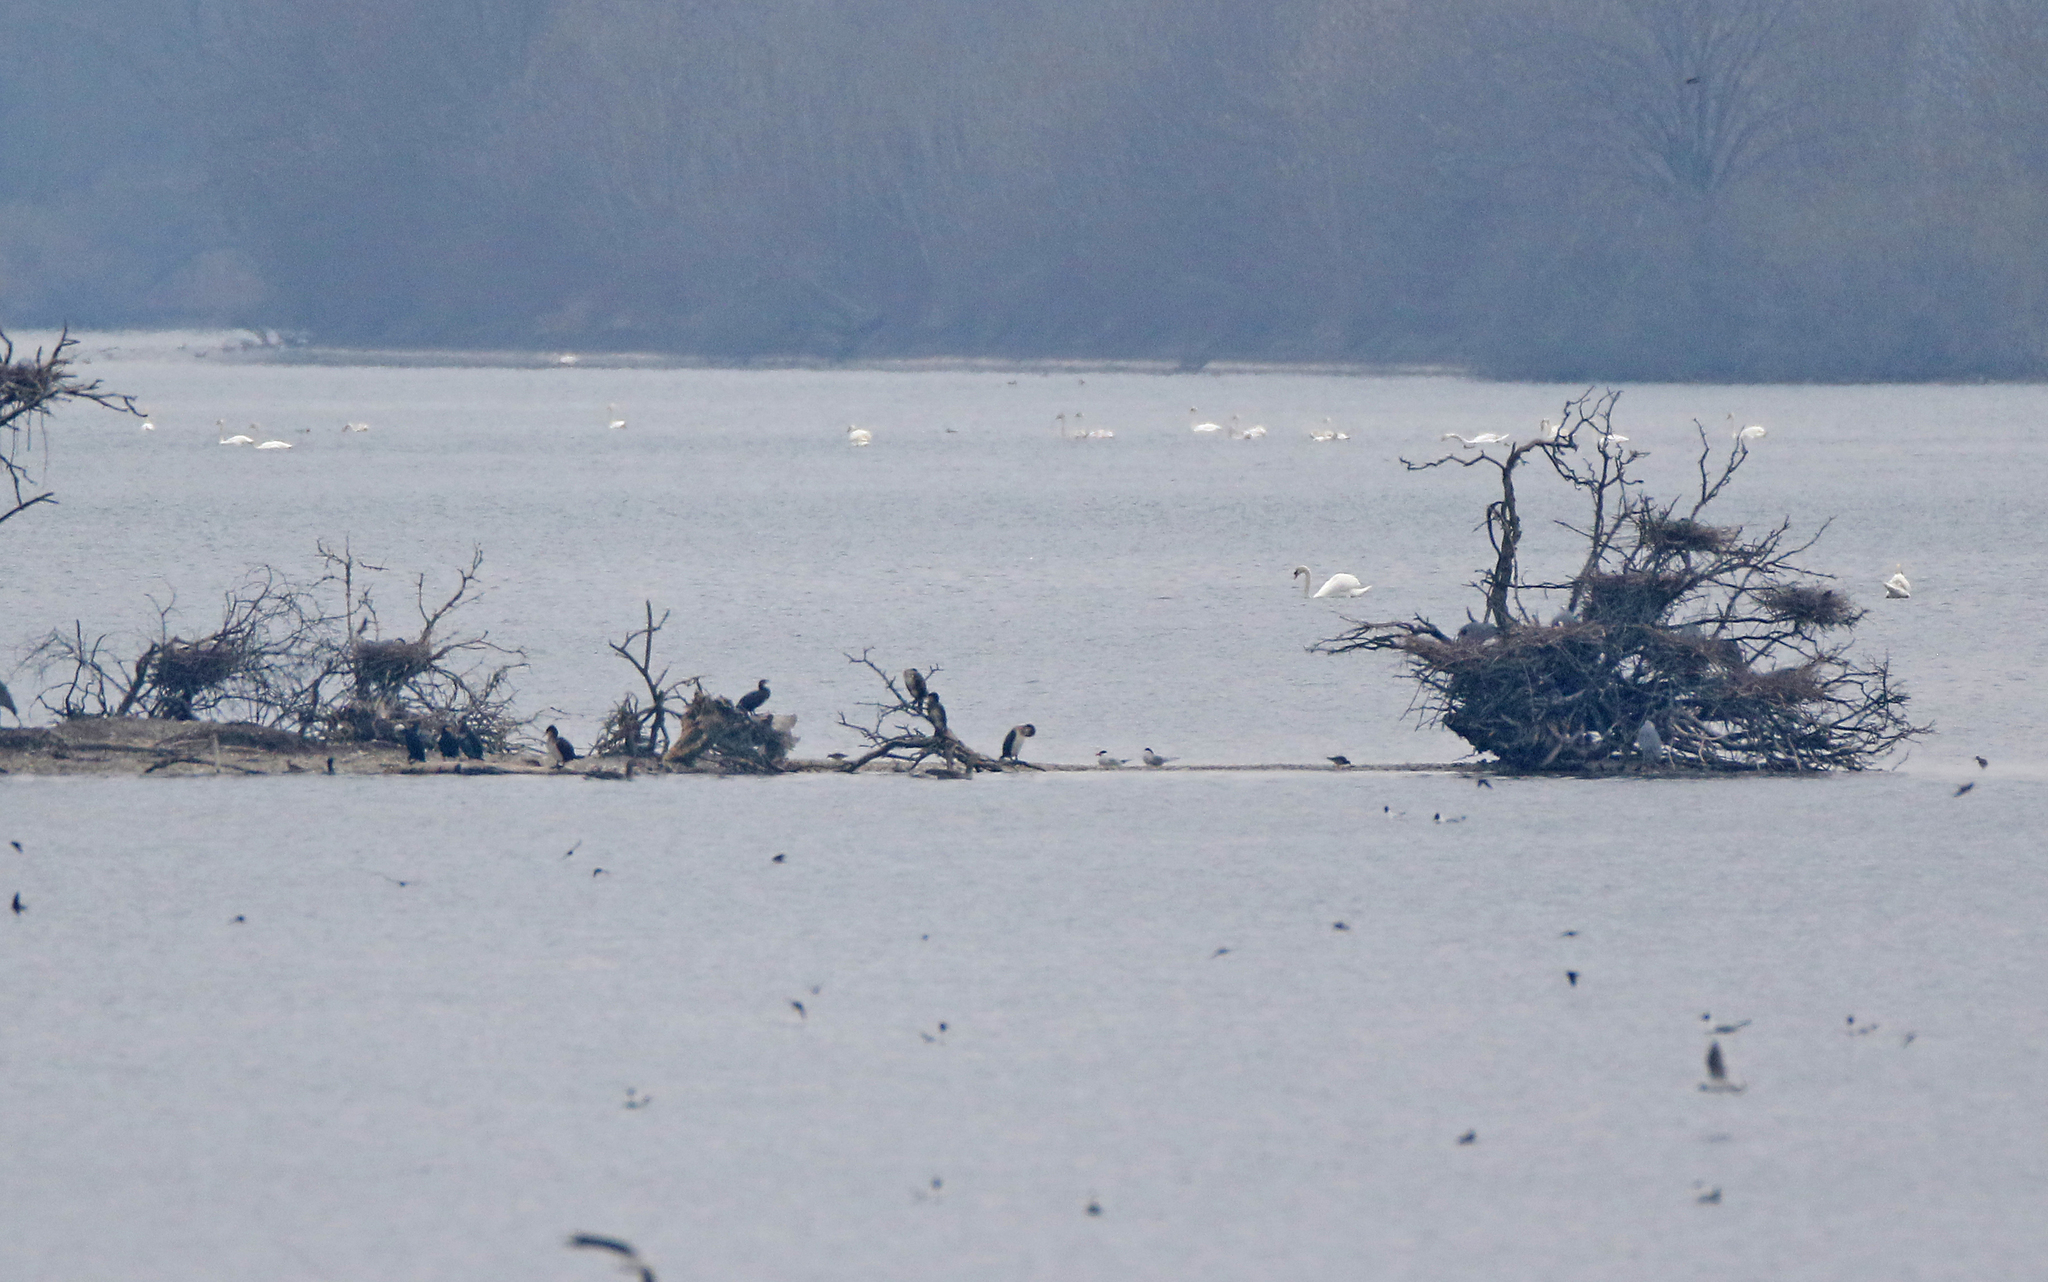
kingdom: Animalia
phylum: Chordata
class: Aves
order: Charadriiformes
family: Laridae
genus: Hydroprogne
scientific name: Hydroprogne caspia
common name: Caspian tern
